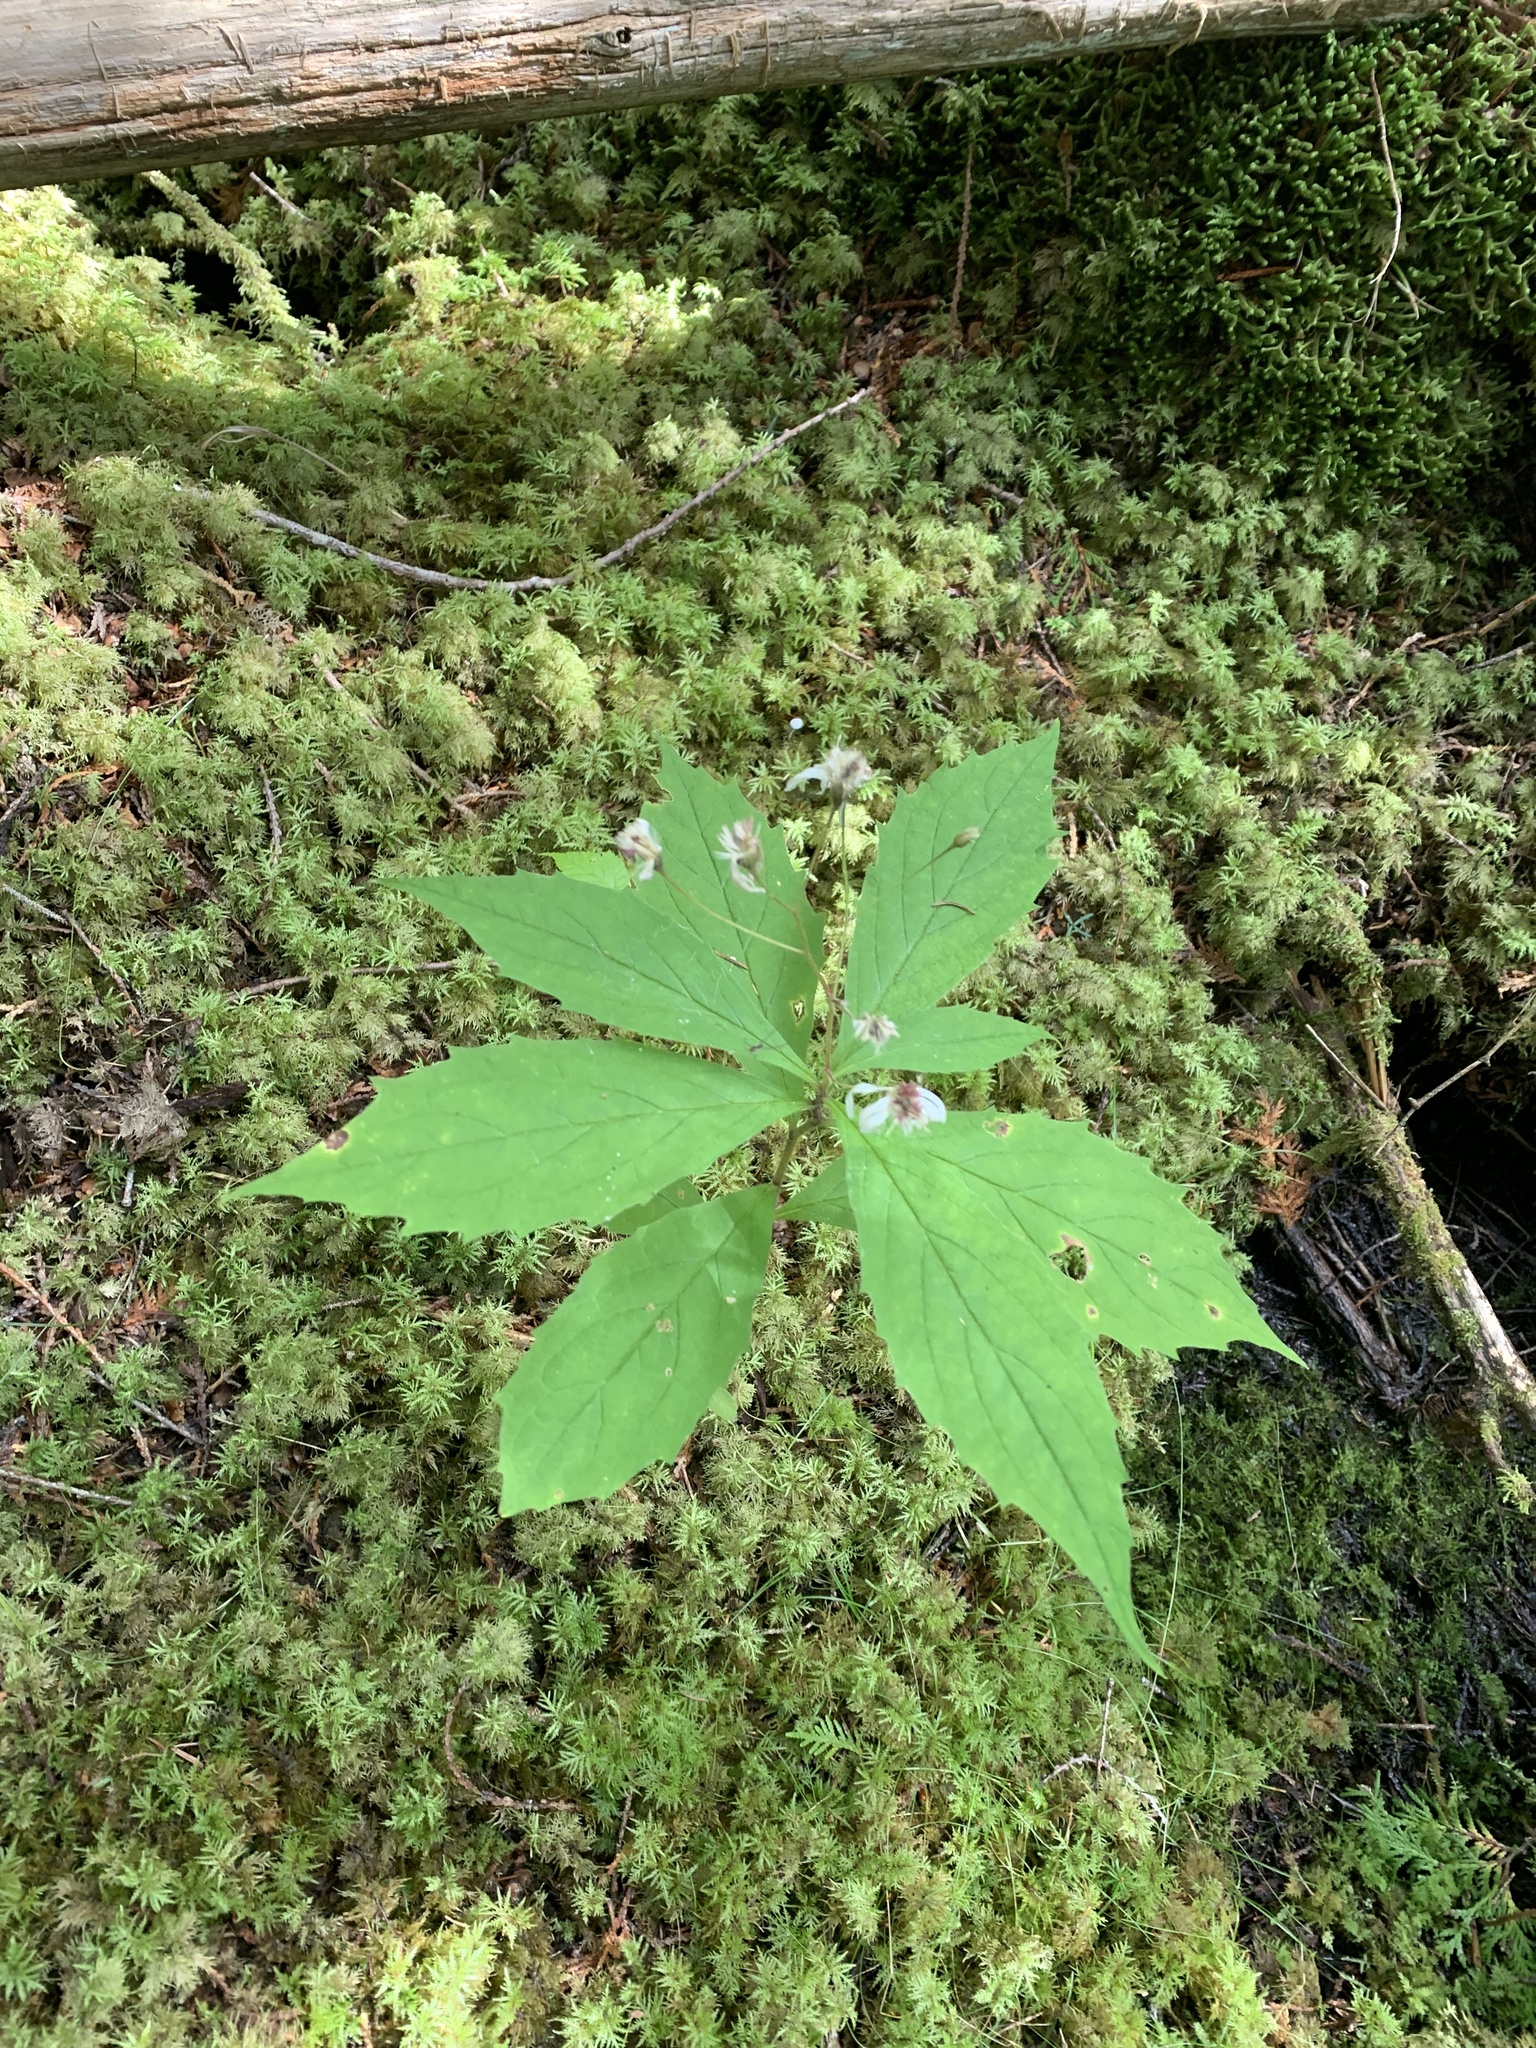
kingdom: Plantae
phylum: Tracheophyta
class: Magnoliopsida
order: Asterales
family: Asteraceae
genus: Oclemena
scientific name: Oclemena acuminata
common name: Mountain aster
